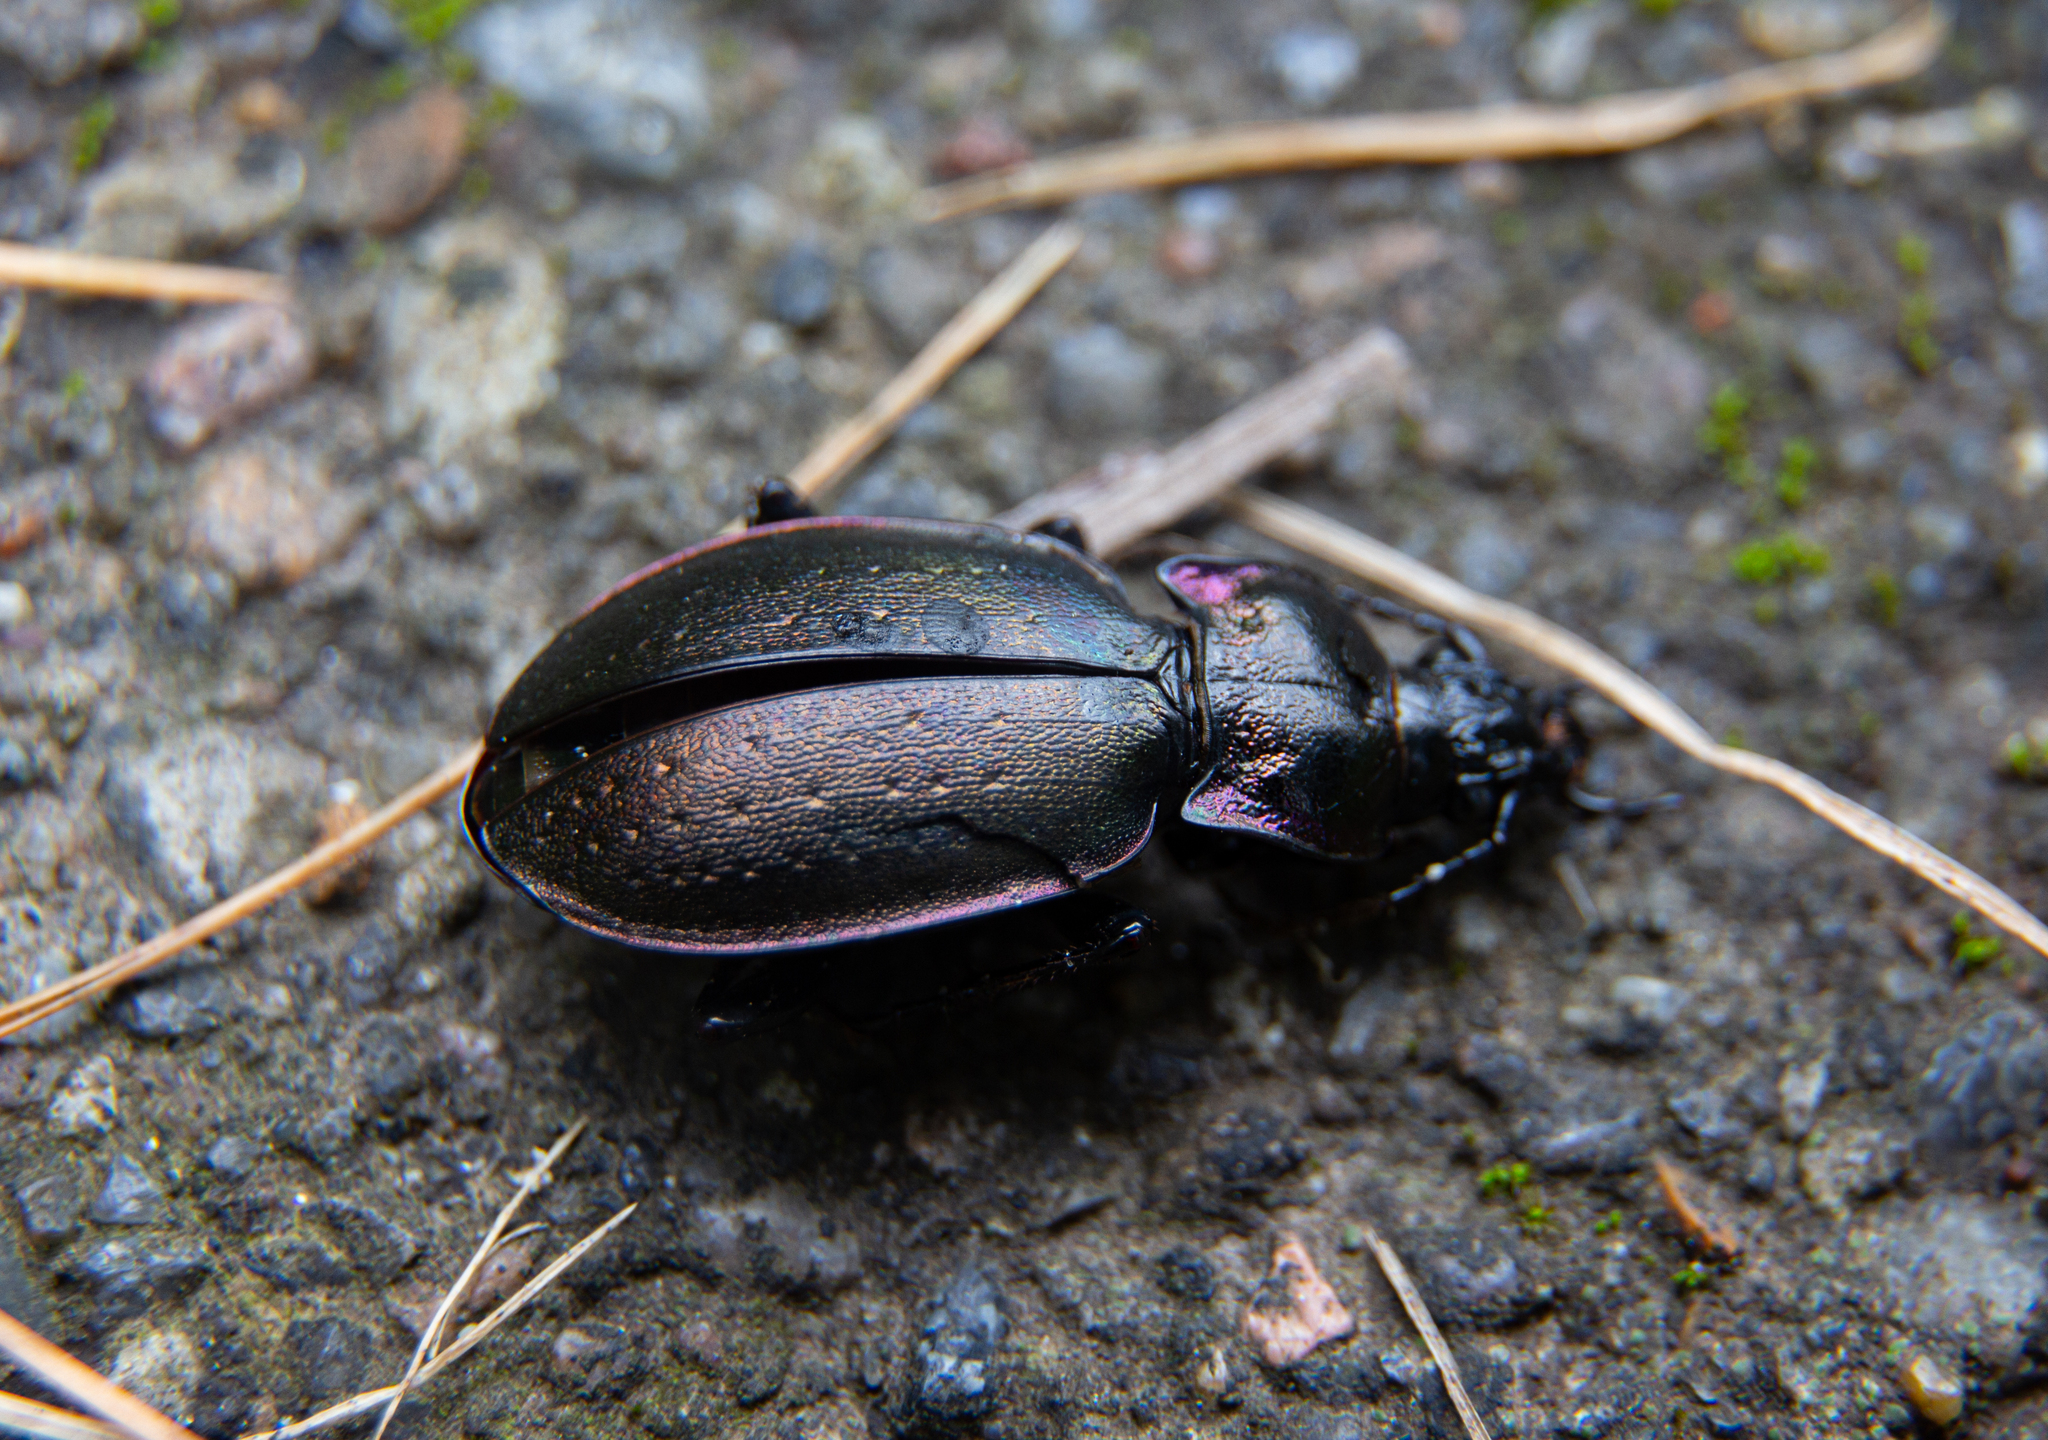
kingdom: Animalia
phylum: Arthropoda
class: Insecta
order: Coleoptera
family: Carabidae
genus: Carabus
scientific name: Carabus nemoralis
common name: European ground beetle
